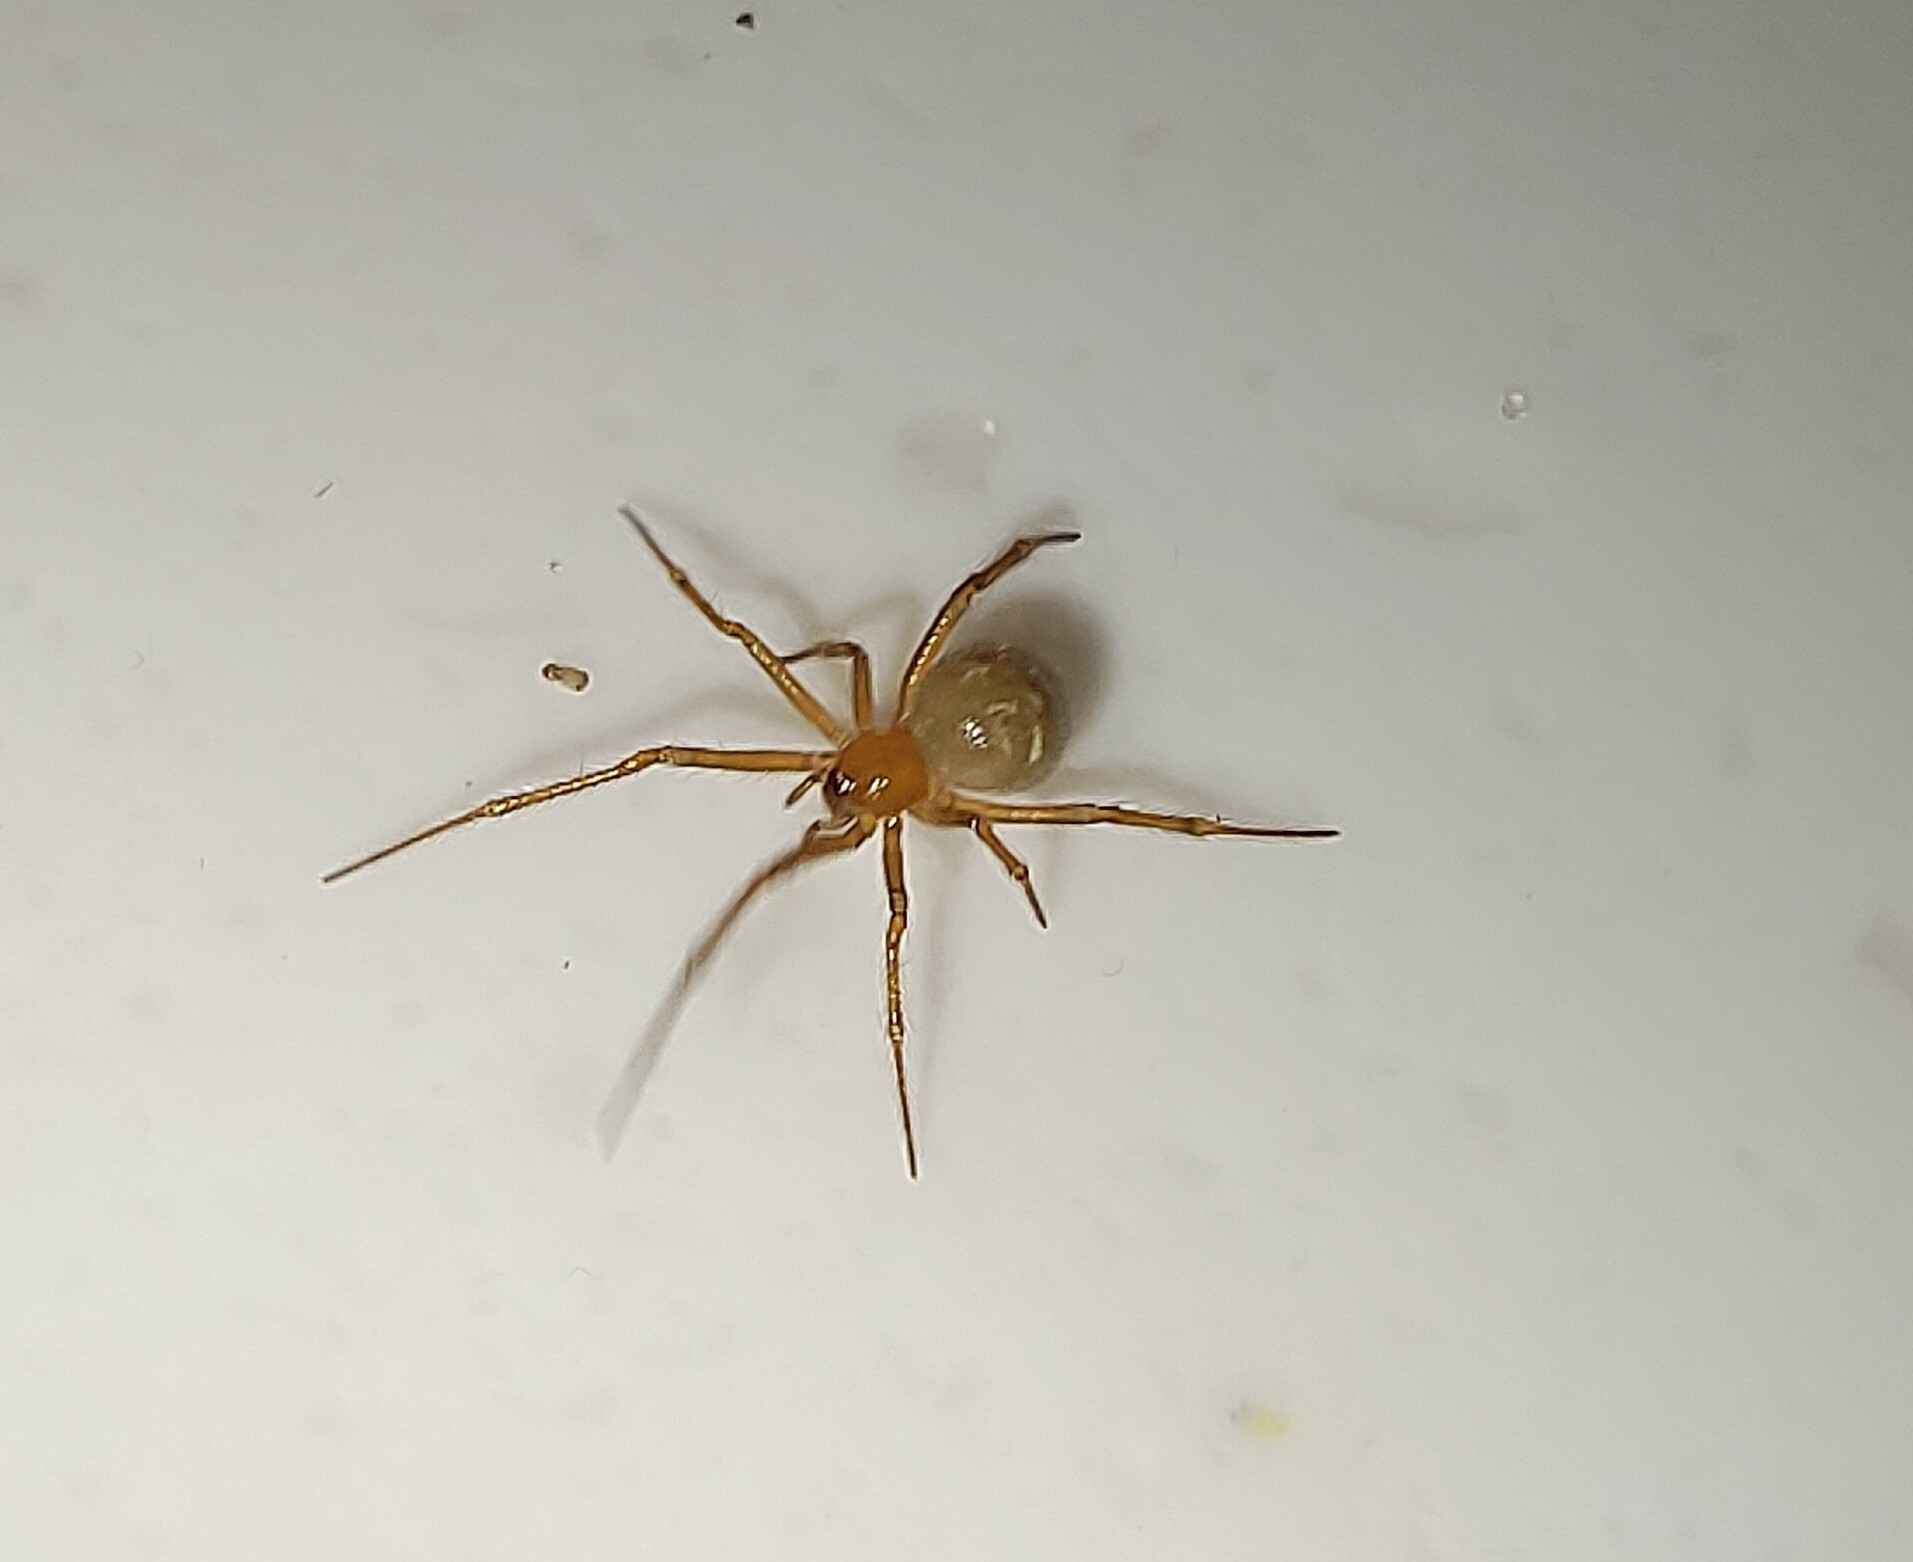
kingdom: Animalia
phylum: Arthropoda
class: Arachnida
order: Araneae
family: Theridiidae
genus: Nesticodes
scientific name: Nesticodes rufipes
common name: Cobweb spiders
